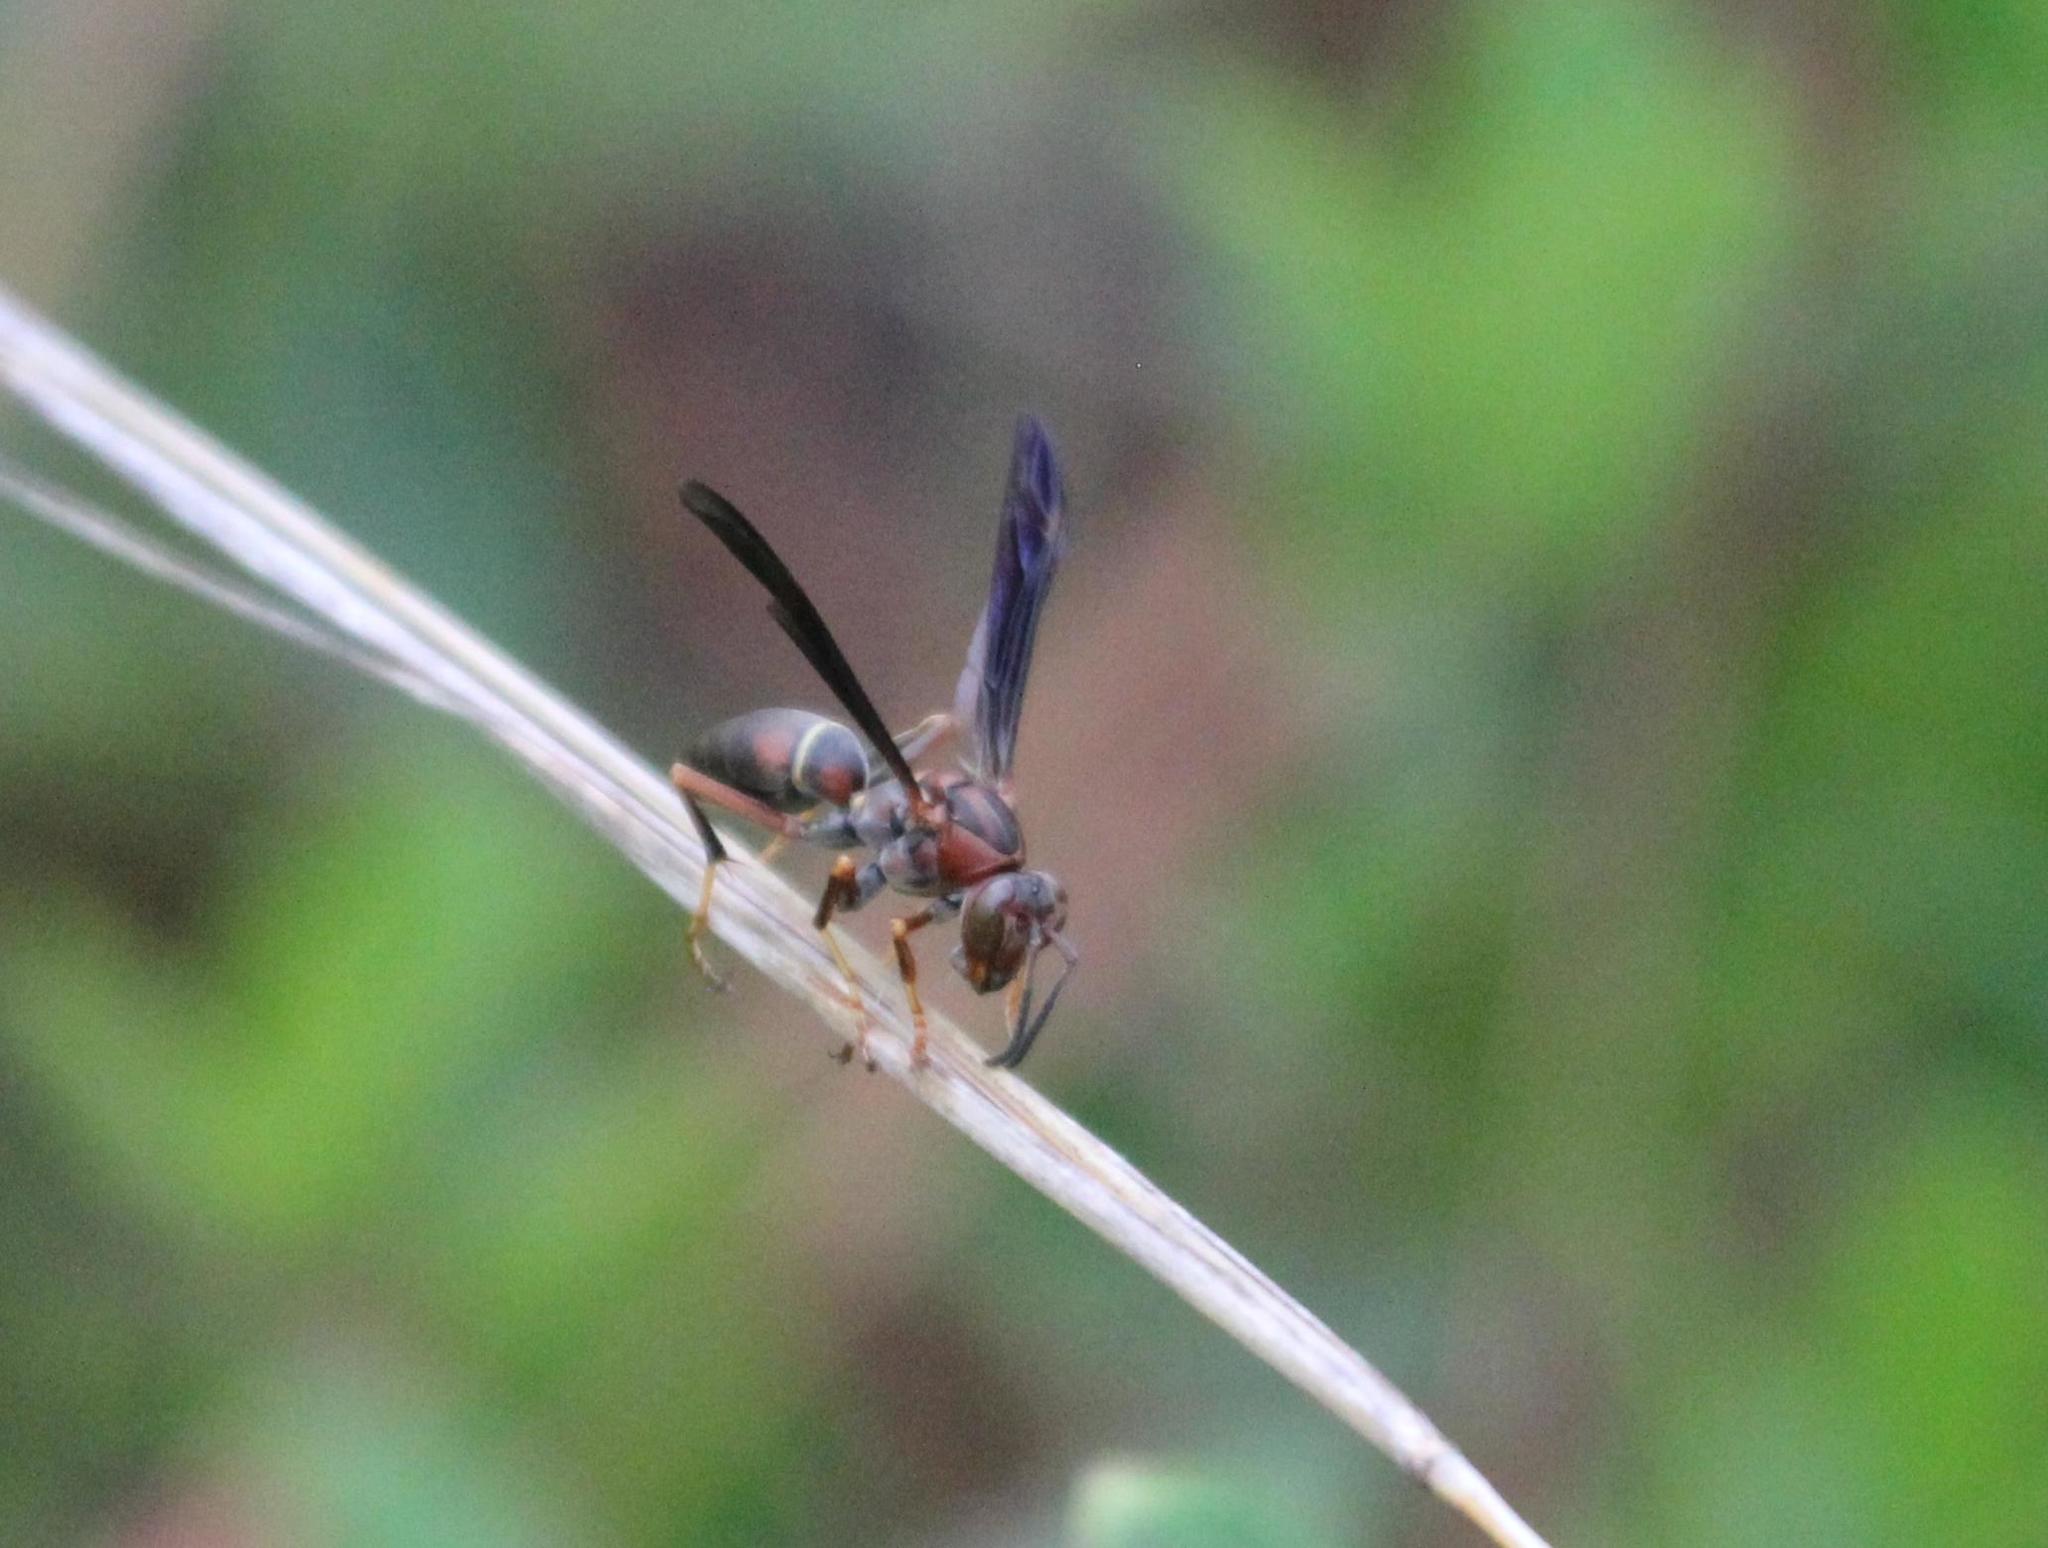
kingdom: Animalia
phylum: Arthropoda
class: Insecta
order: Hymenoptera
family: Eumenidae
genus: Polistes
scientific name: Polistes fuscatus
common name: Dark paper wasp
